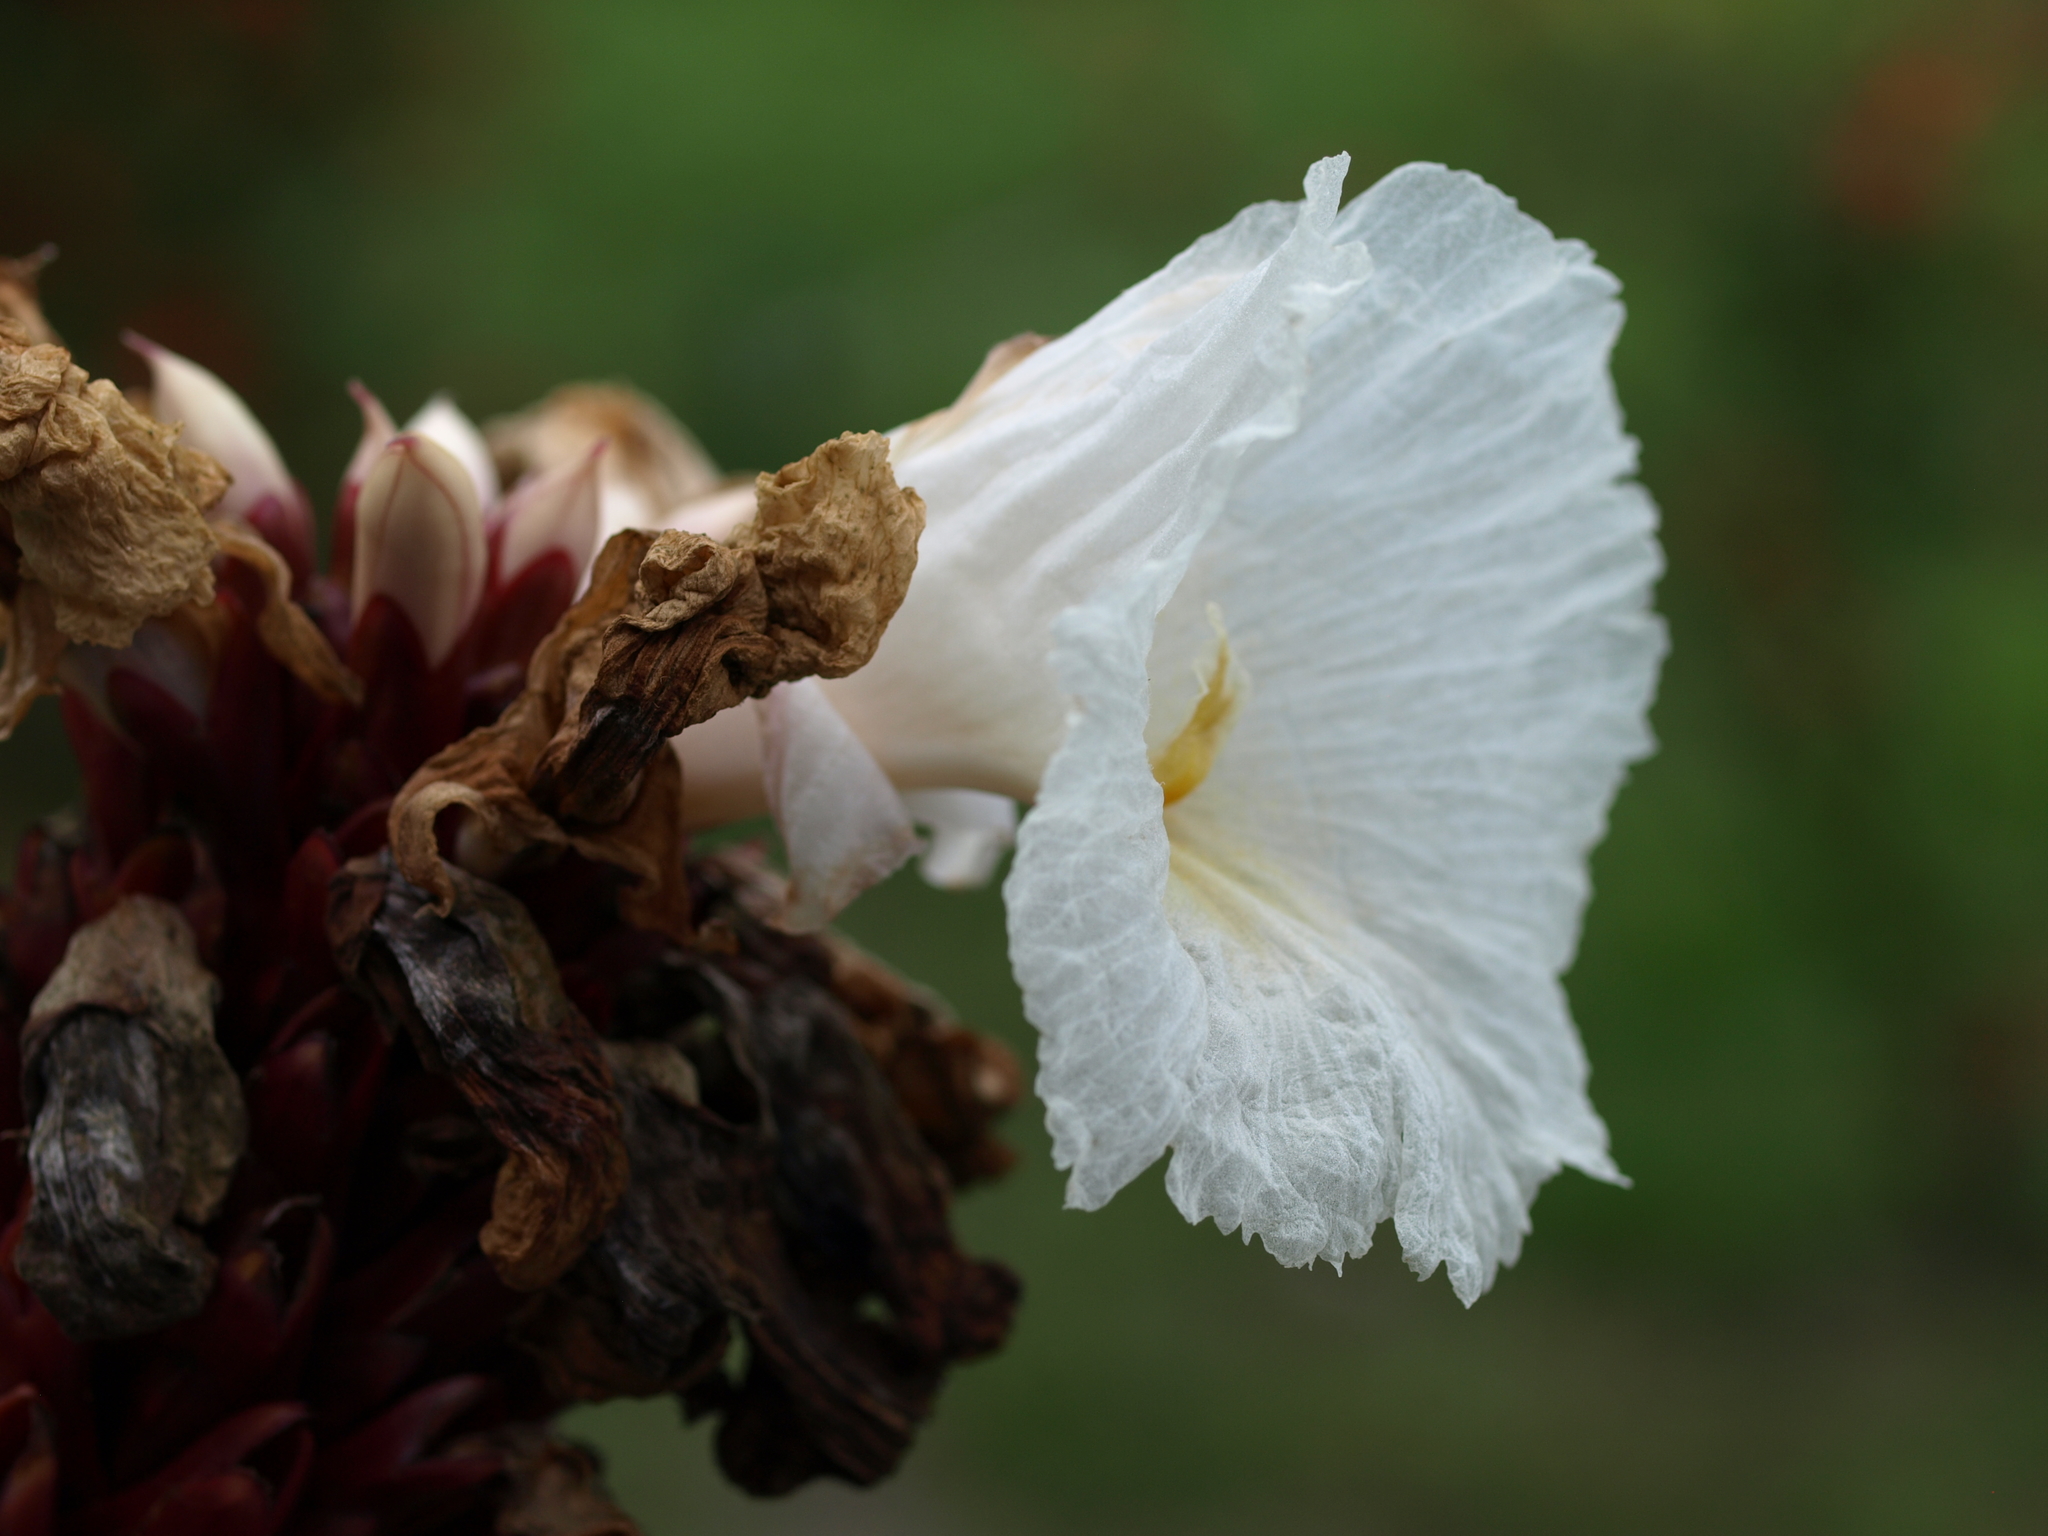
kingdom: Plantae
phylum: Tracheophyta
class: Liliopsida
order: Zingiberales
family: Costaceae
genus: Hellenia
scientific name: Hellenia speciosa
